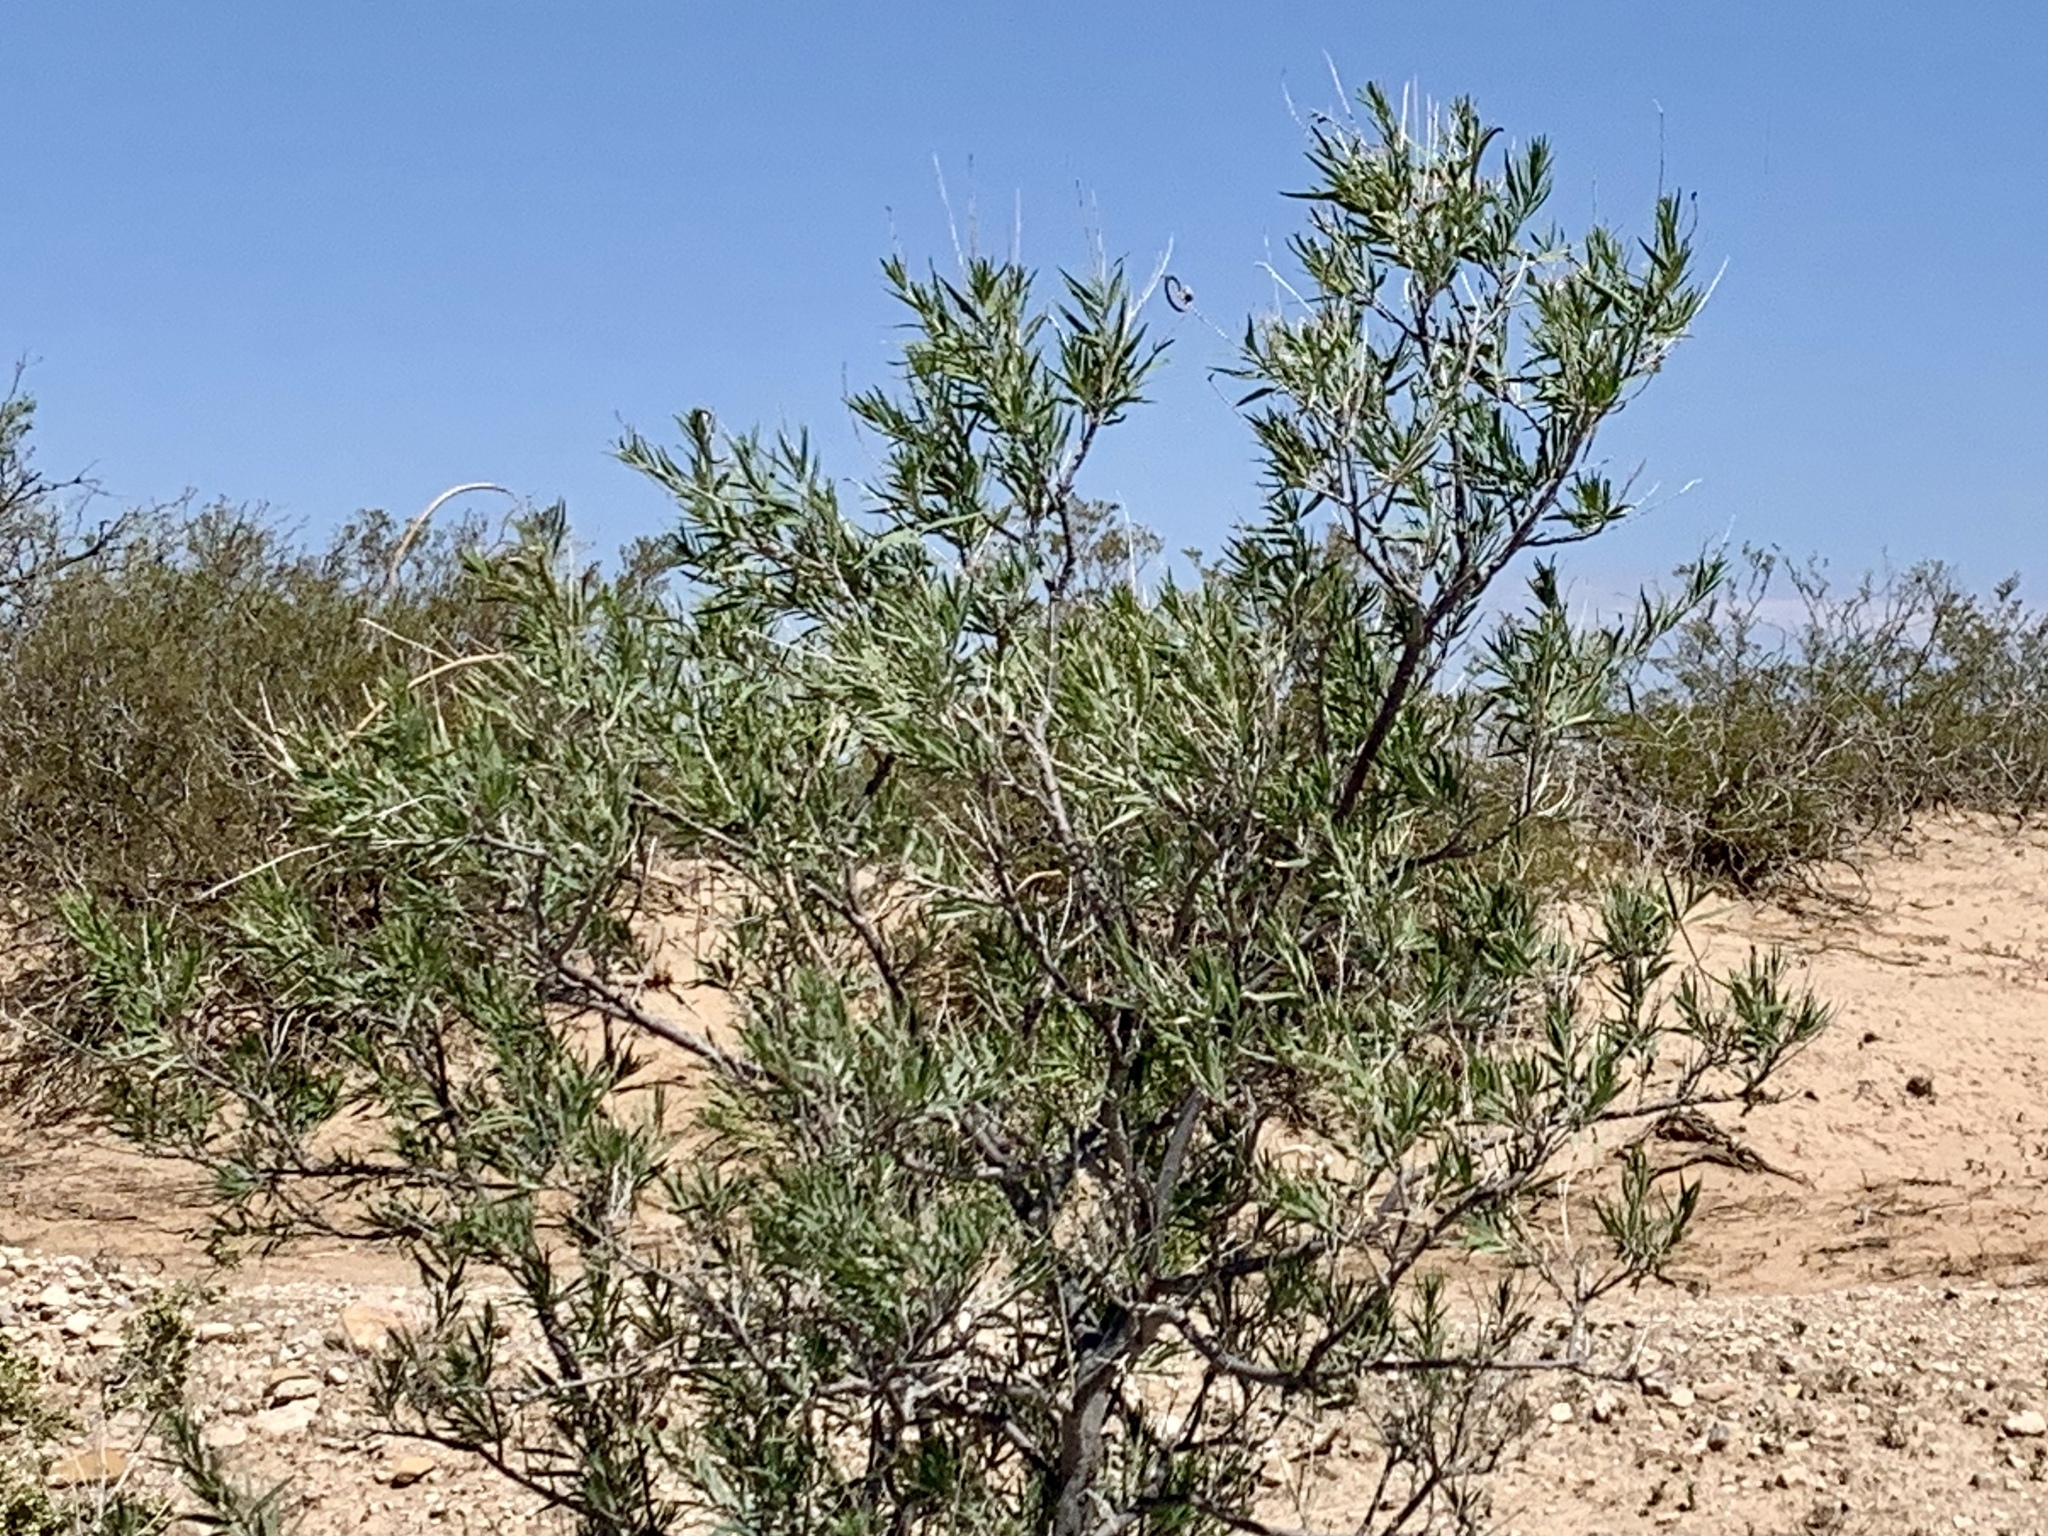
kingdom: Plantae
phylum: Tracheophyta
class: Magnoliopsida
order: Lamiales
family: Bignoniaceae
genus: Chilopsis
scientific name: Chilopsis linearis
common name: Desert-willow
